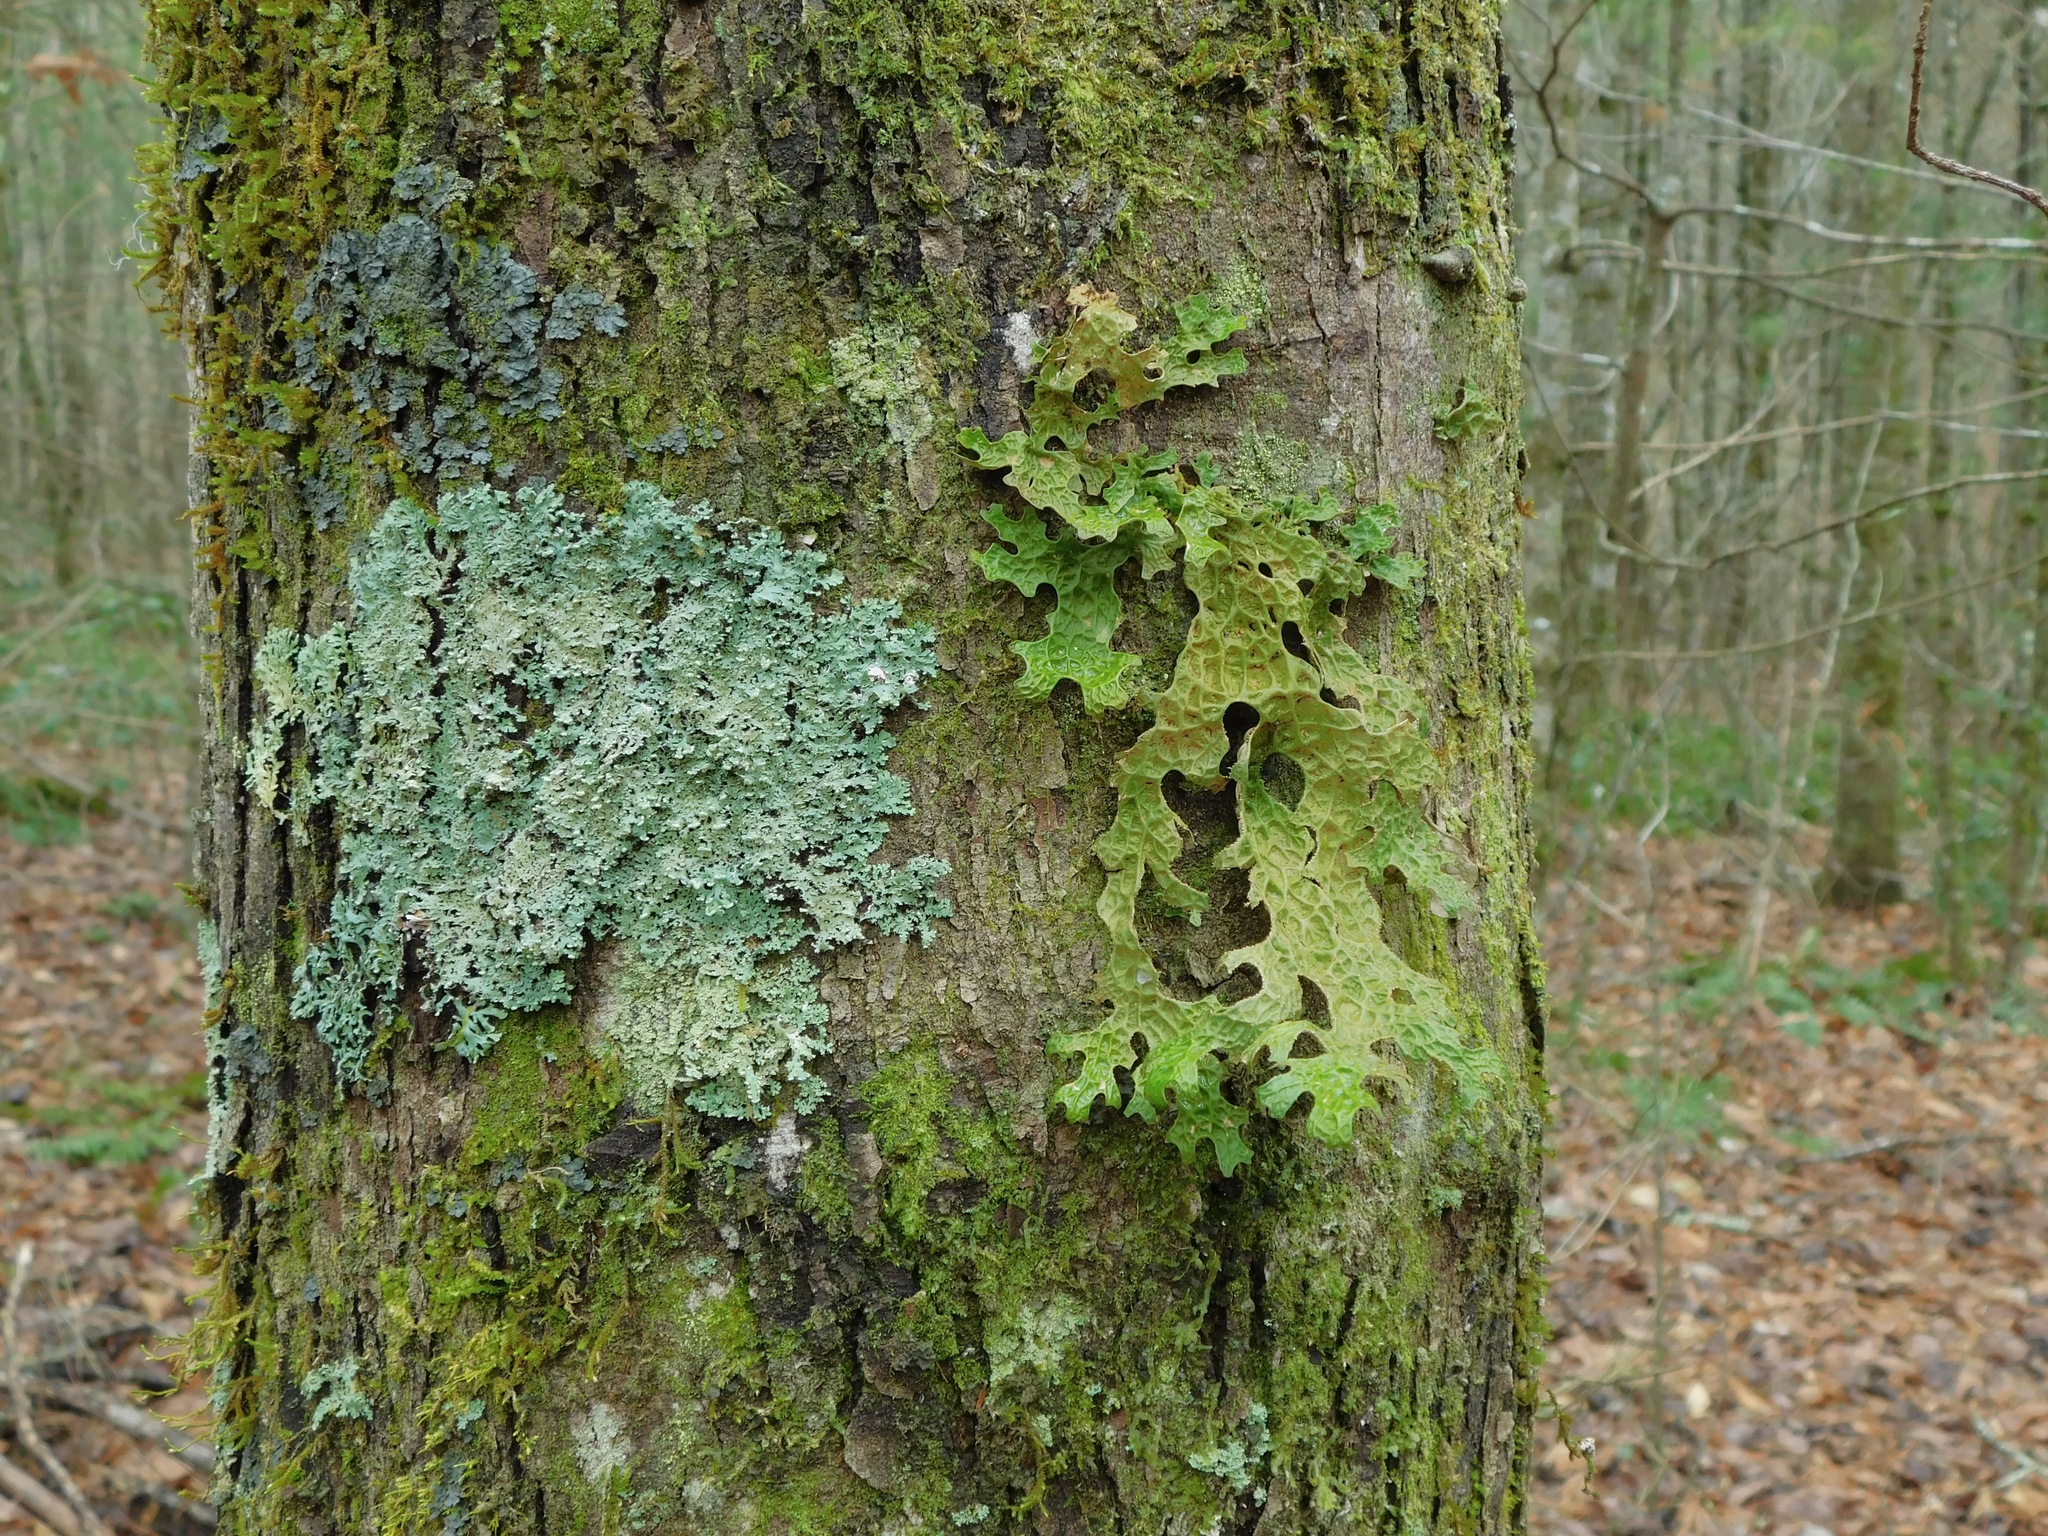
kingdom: Fungi
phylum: Ascomycota
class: Lecanoromycetes
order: Caliciales
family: Physciaceae
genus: Heterodermia
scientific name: Heterodermia speciosa
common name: Powdered fringe lichen
